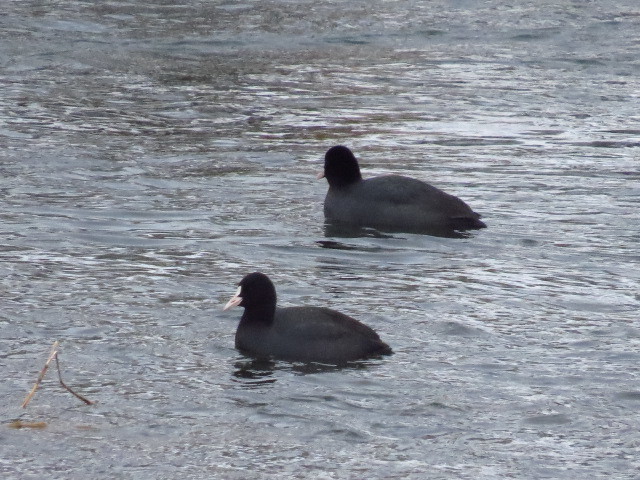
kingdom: Animalia
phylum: Chordata
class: Aves
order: Gruiformes
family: Rallidae
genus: Fulica
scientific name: Fulica atra
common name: Eurasian coot
